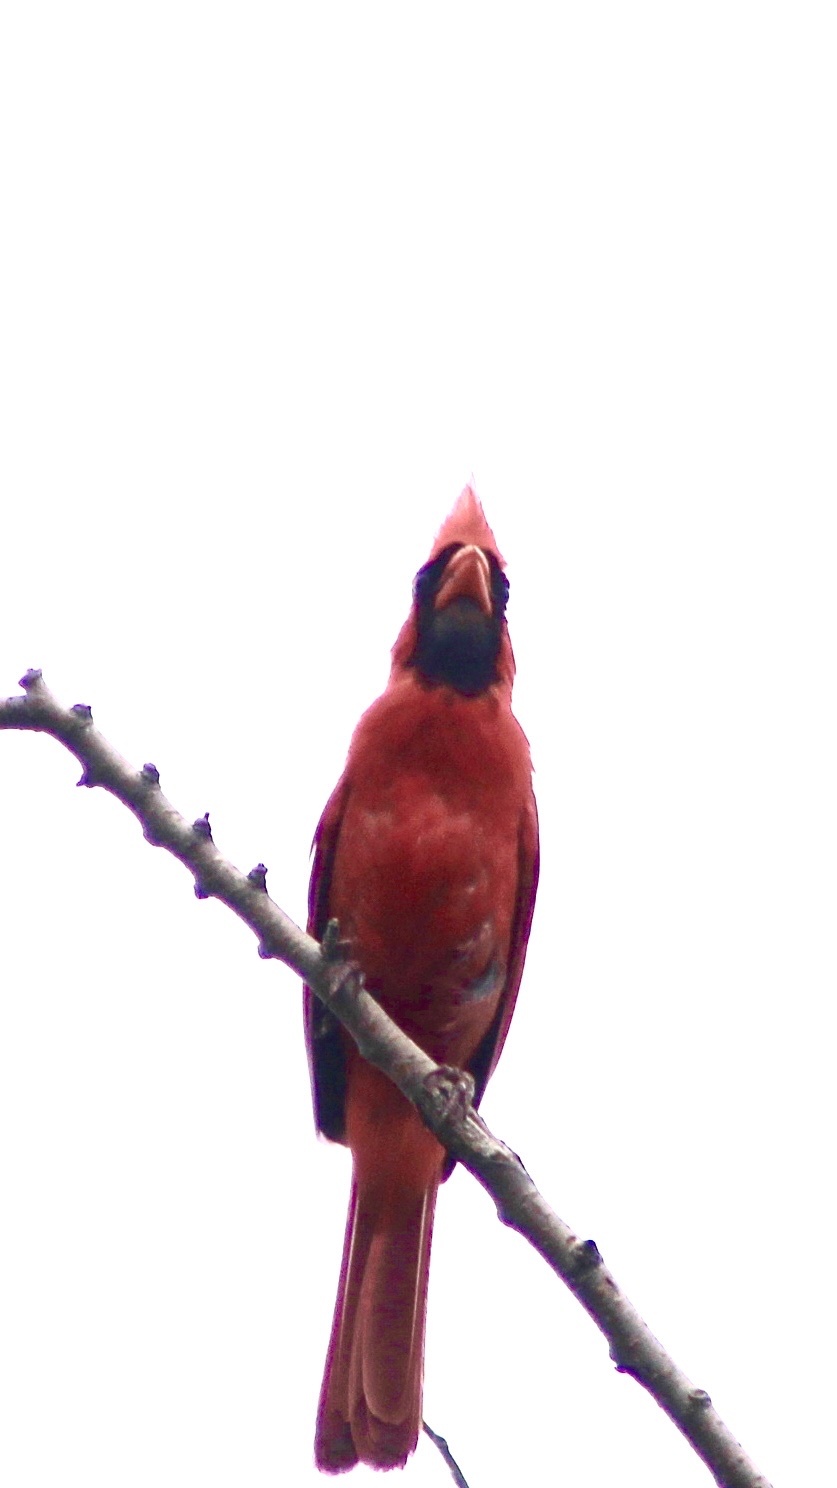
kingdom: Animalia
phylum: Chordata
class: Aves
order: Passeriformes
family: Cardinalidae
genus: Cardinalis
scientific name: Cardinalis cardinalis
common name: Northern cardinal
